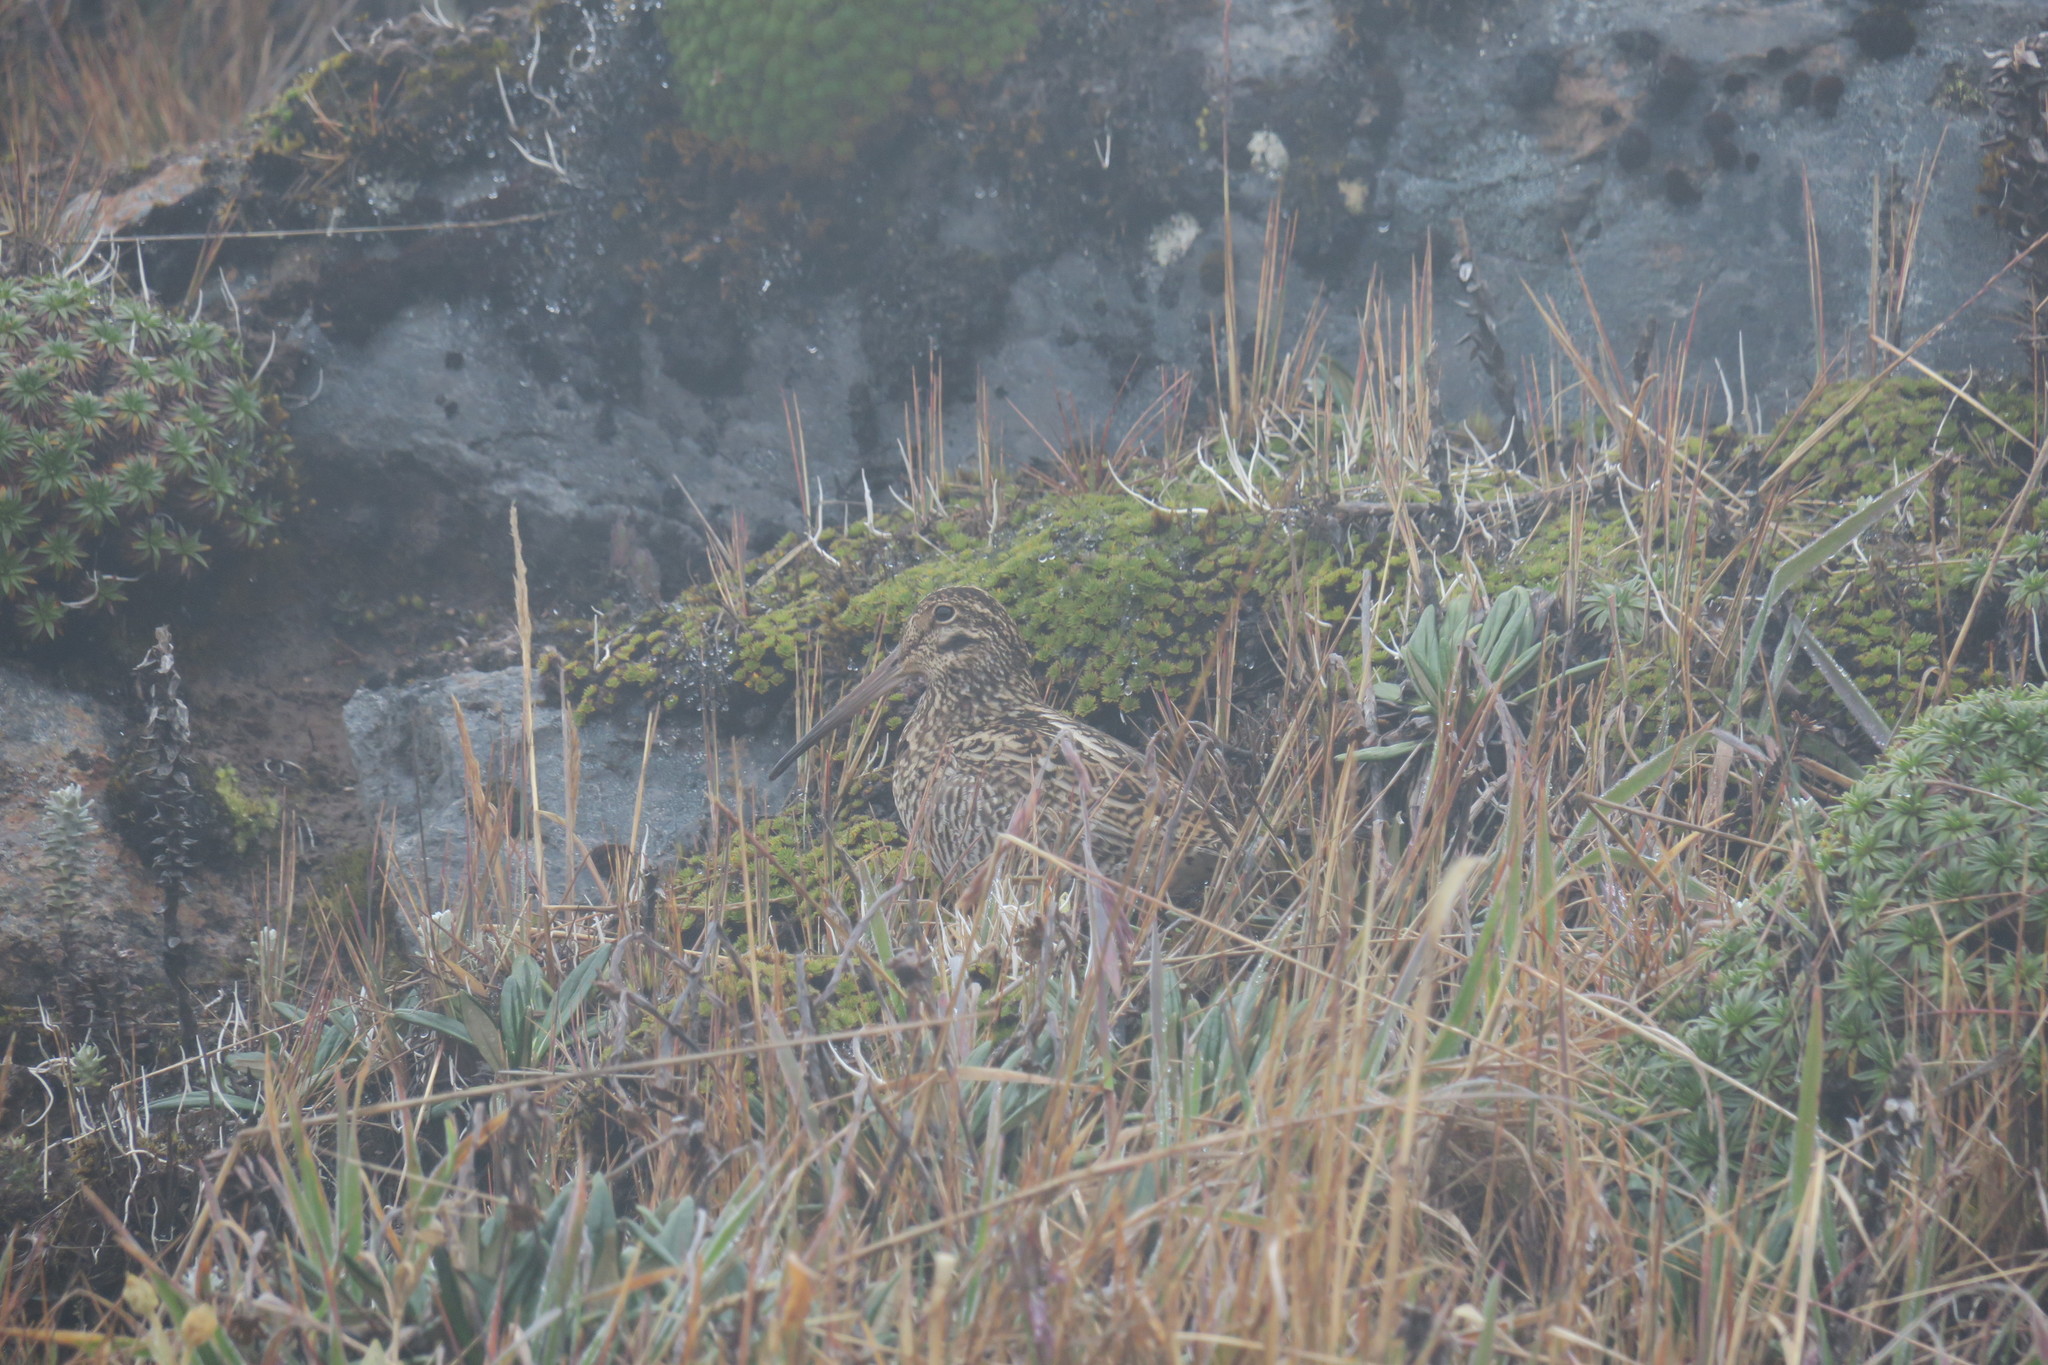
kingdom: Animalia
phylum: Chordata
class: Aves
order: Charadriiformes
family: Scolopacidae
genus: Gallinago
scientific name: Gallinago jamesoni
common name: Andean snipe
